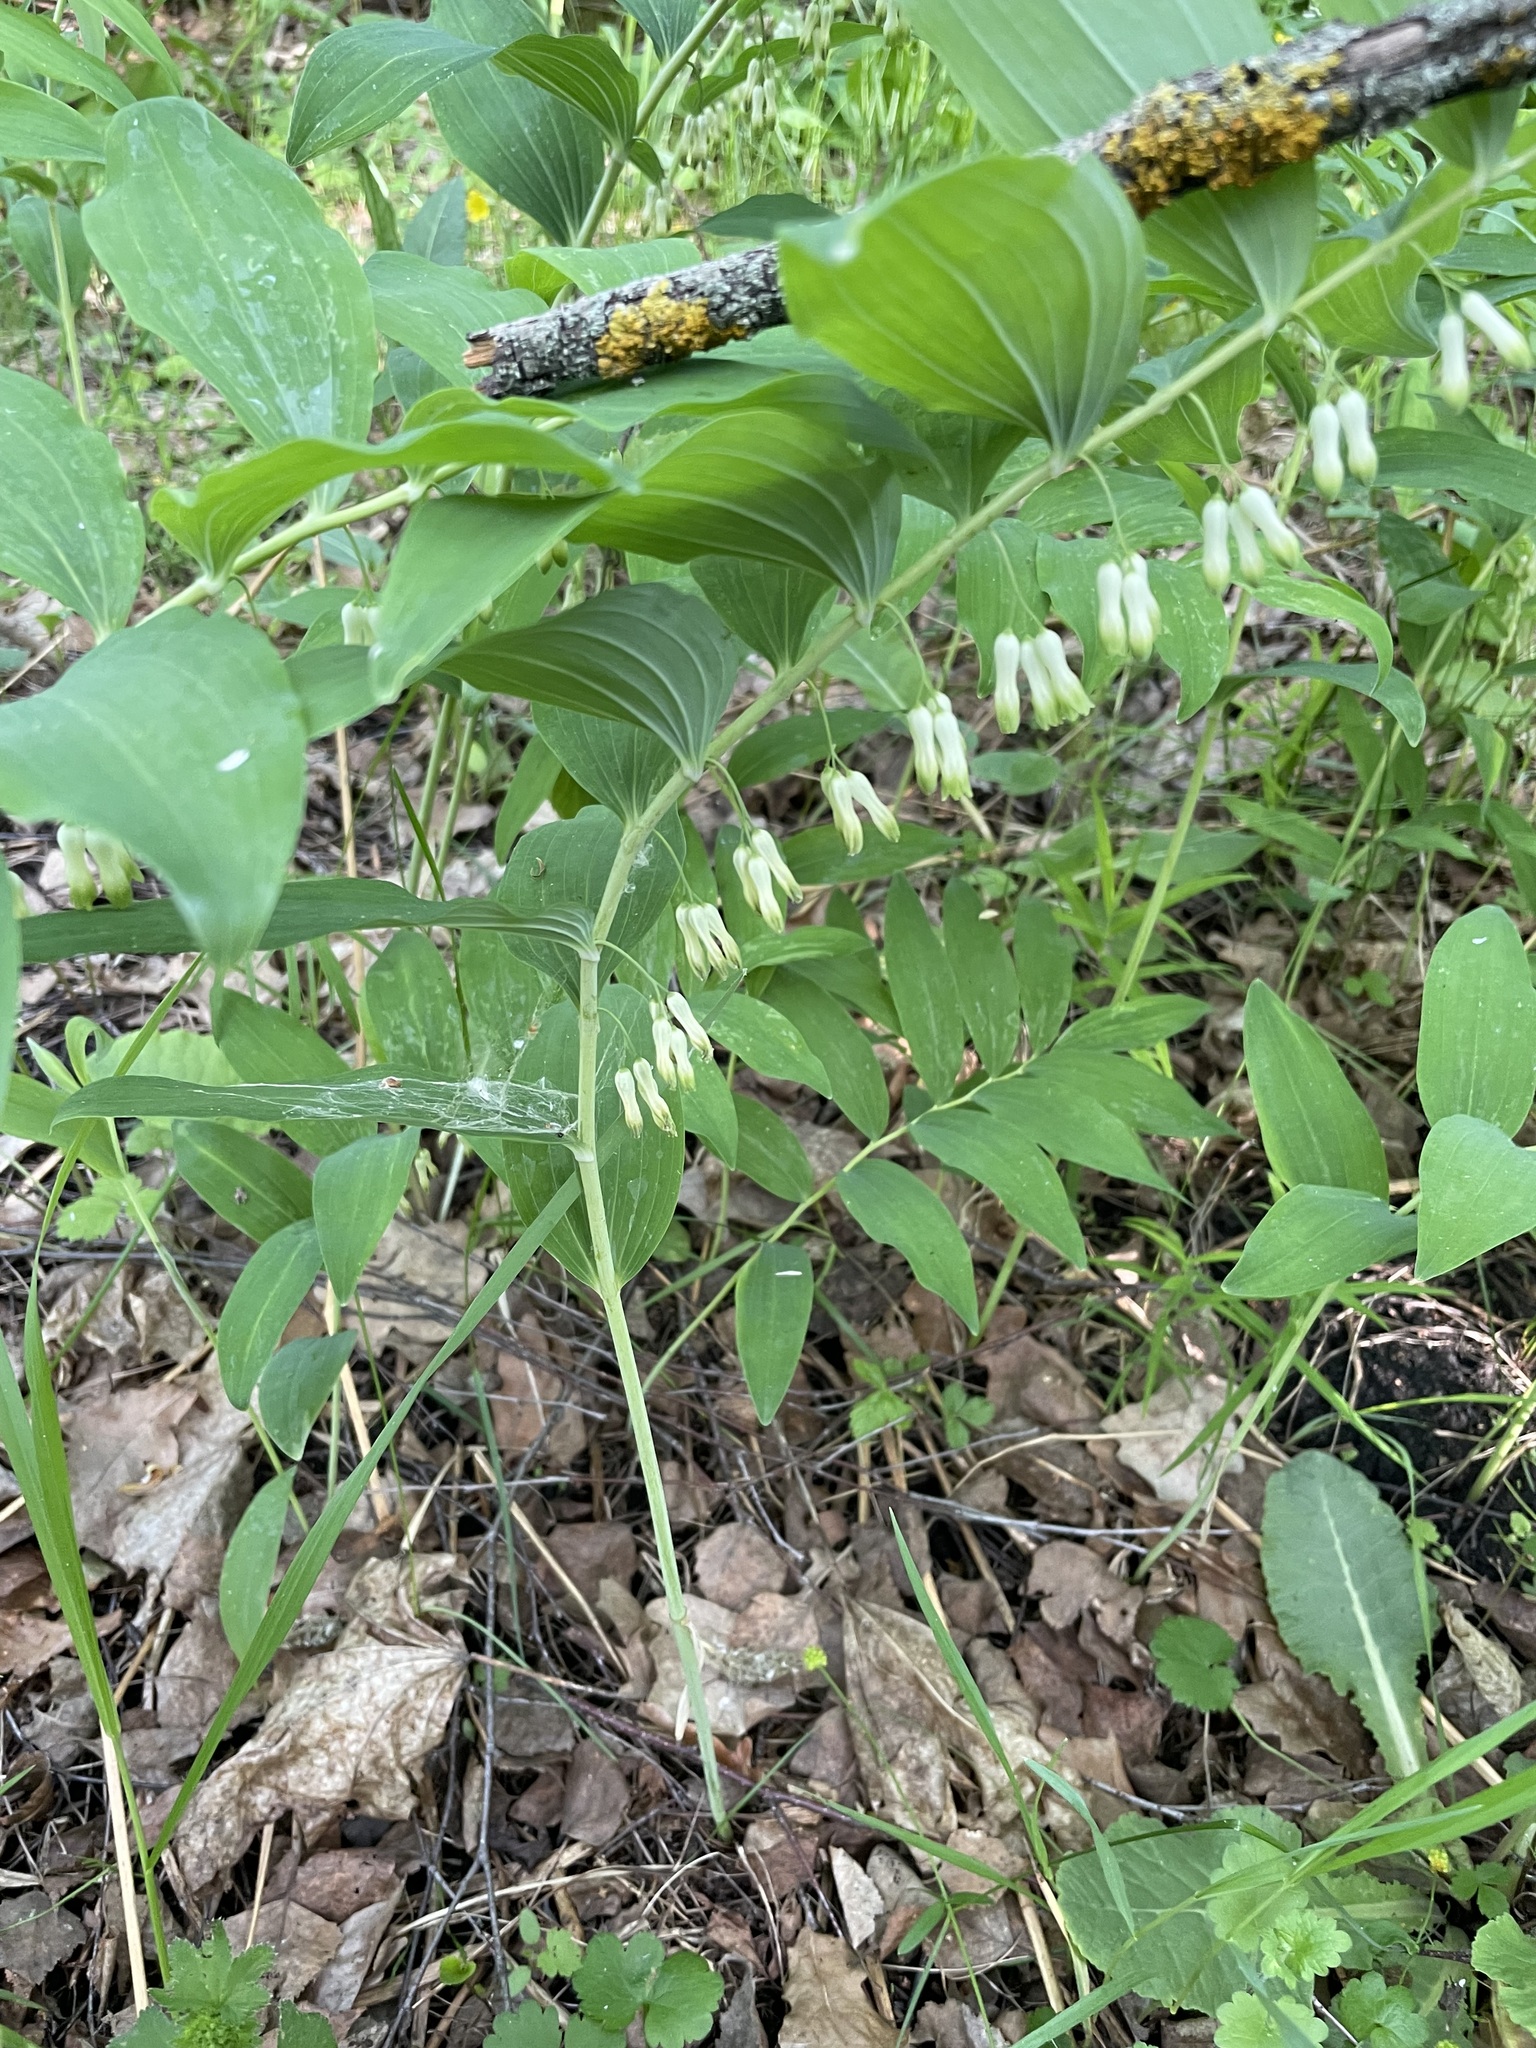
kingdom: Plantae
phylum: Tracheophyta
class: Liliopsida
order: Asparagales
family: Asparagaceae
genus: Polygonatum
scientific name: Polygonatum multiflorum
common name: Solomon's-seal
